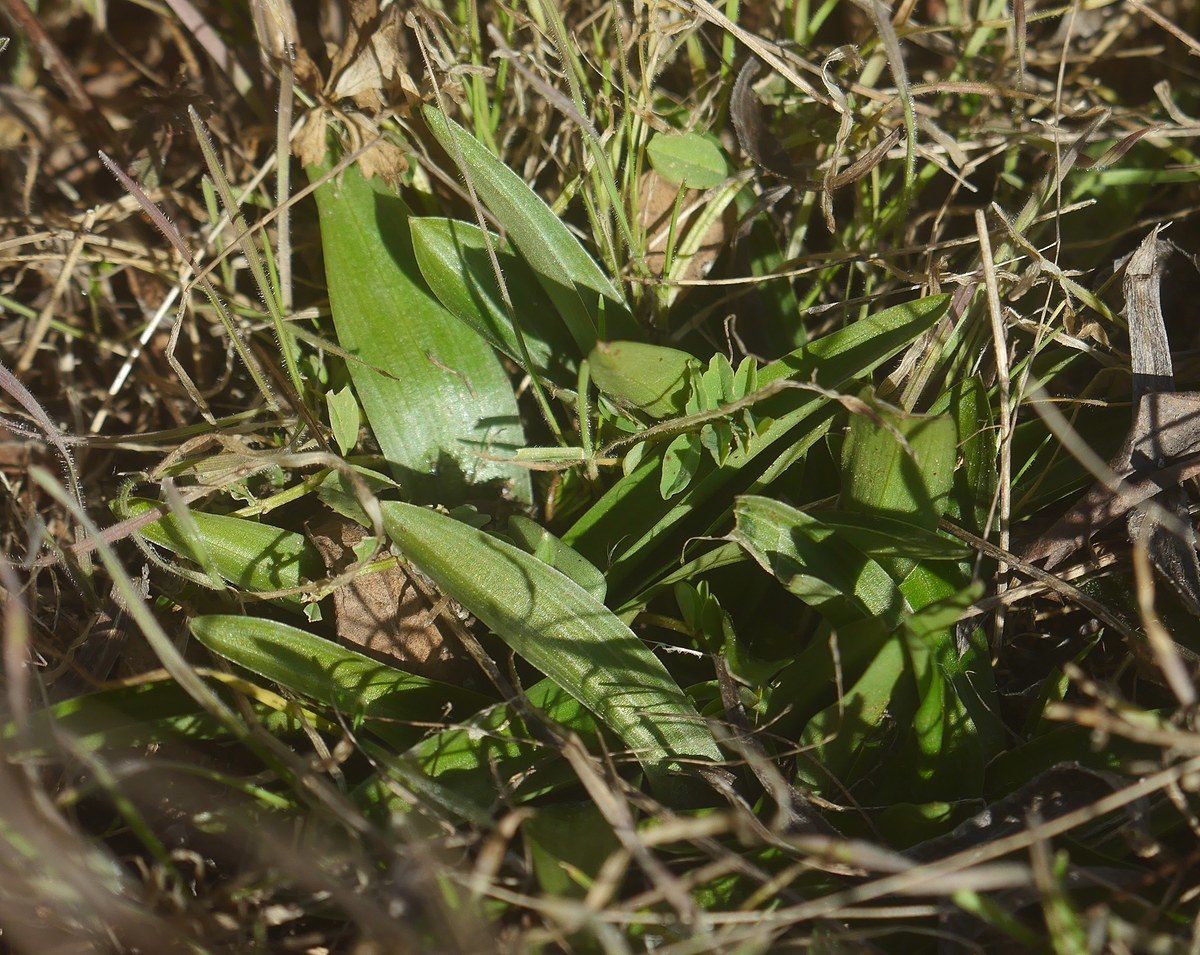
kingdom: Plantae
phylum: Tracheophyta
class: Liliopsida
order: Asparagales
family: Orchidaceae
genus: Anacamptis
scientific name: Anacamptis morio
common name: Green-winged orchid
